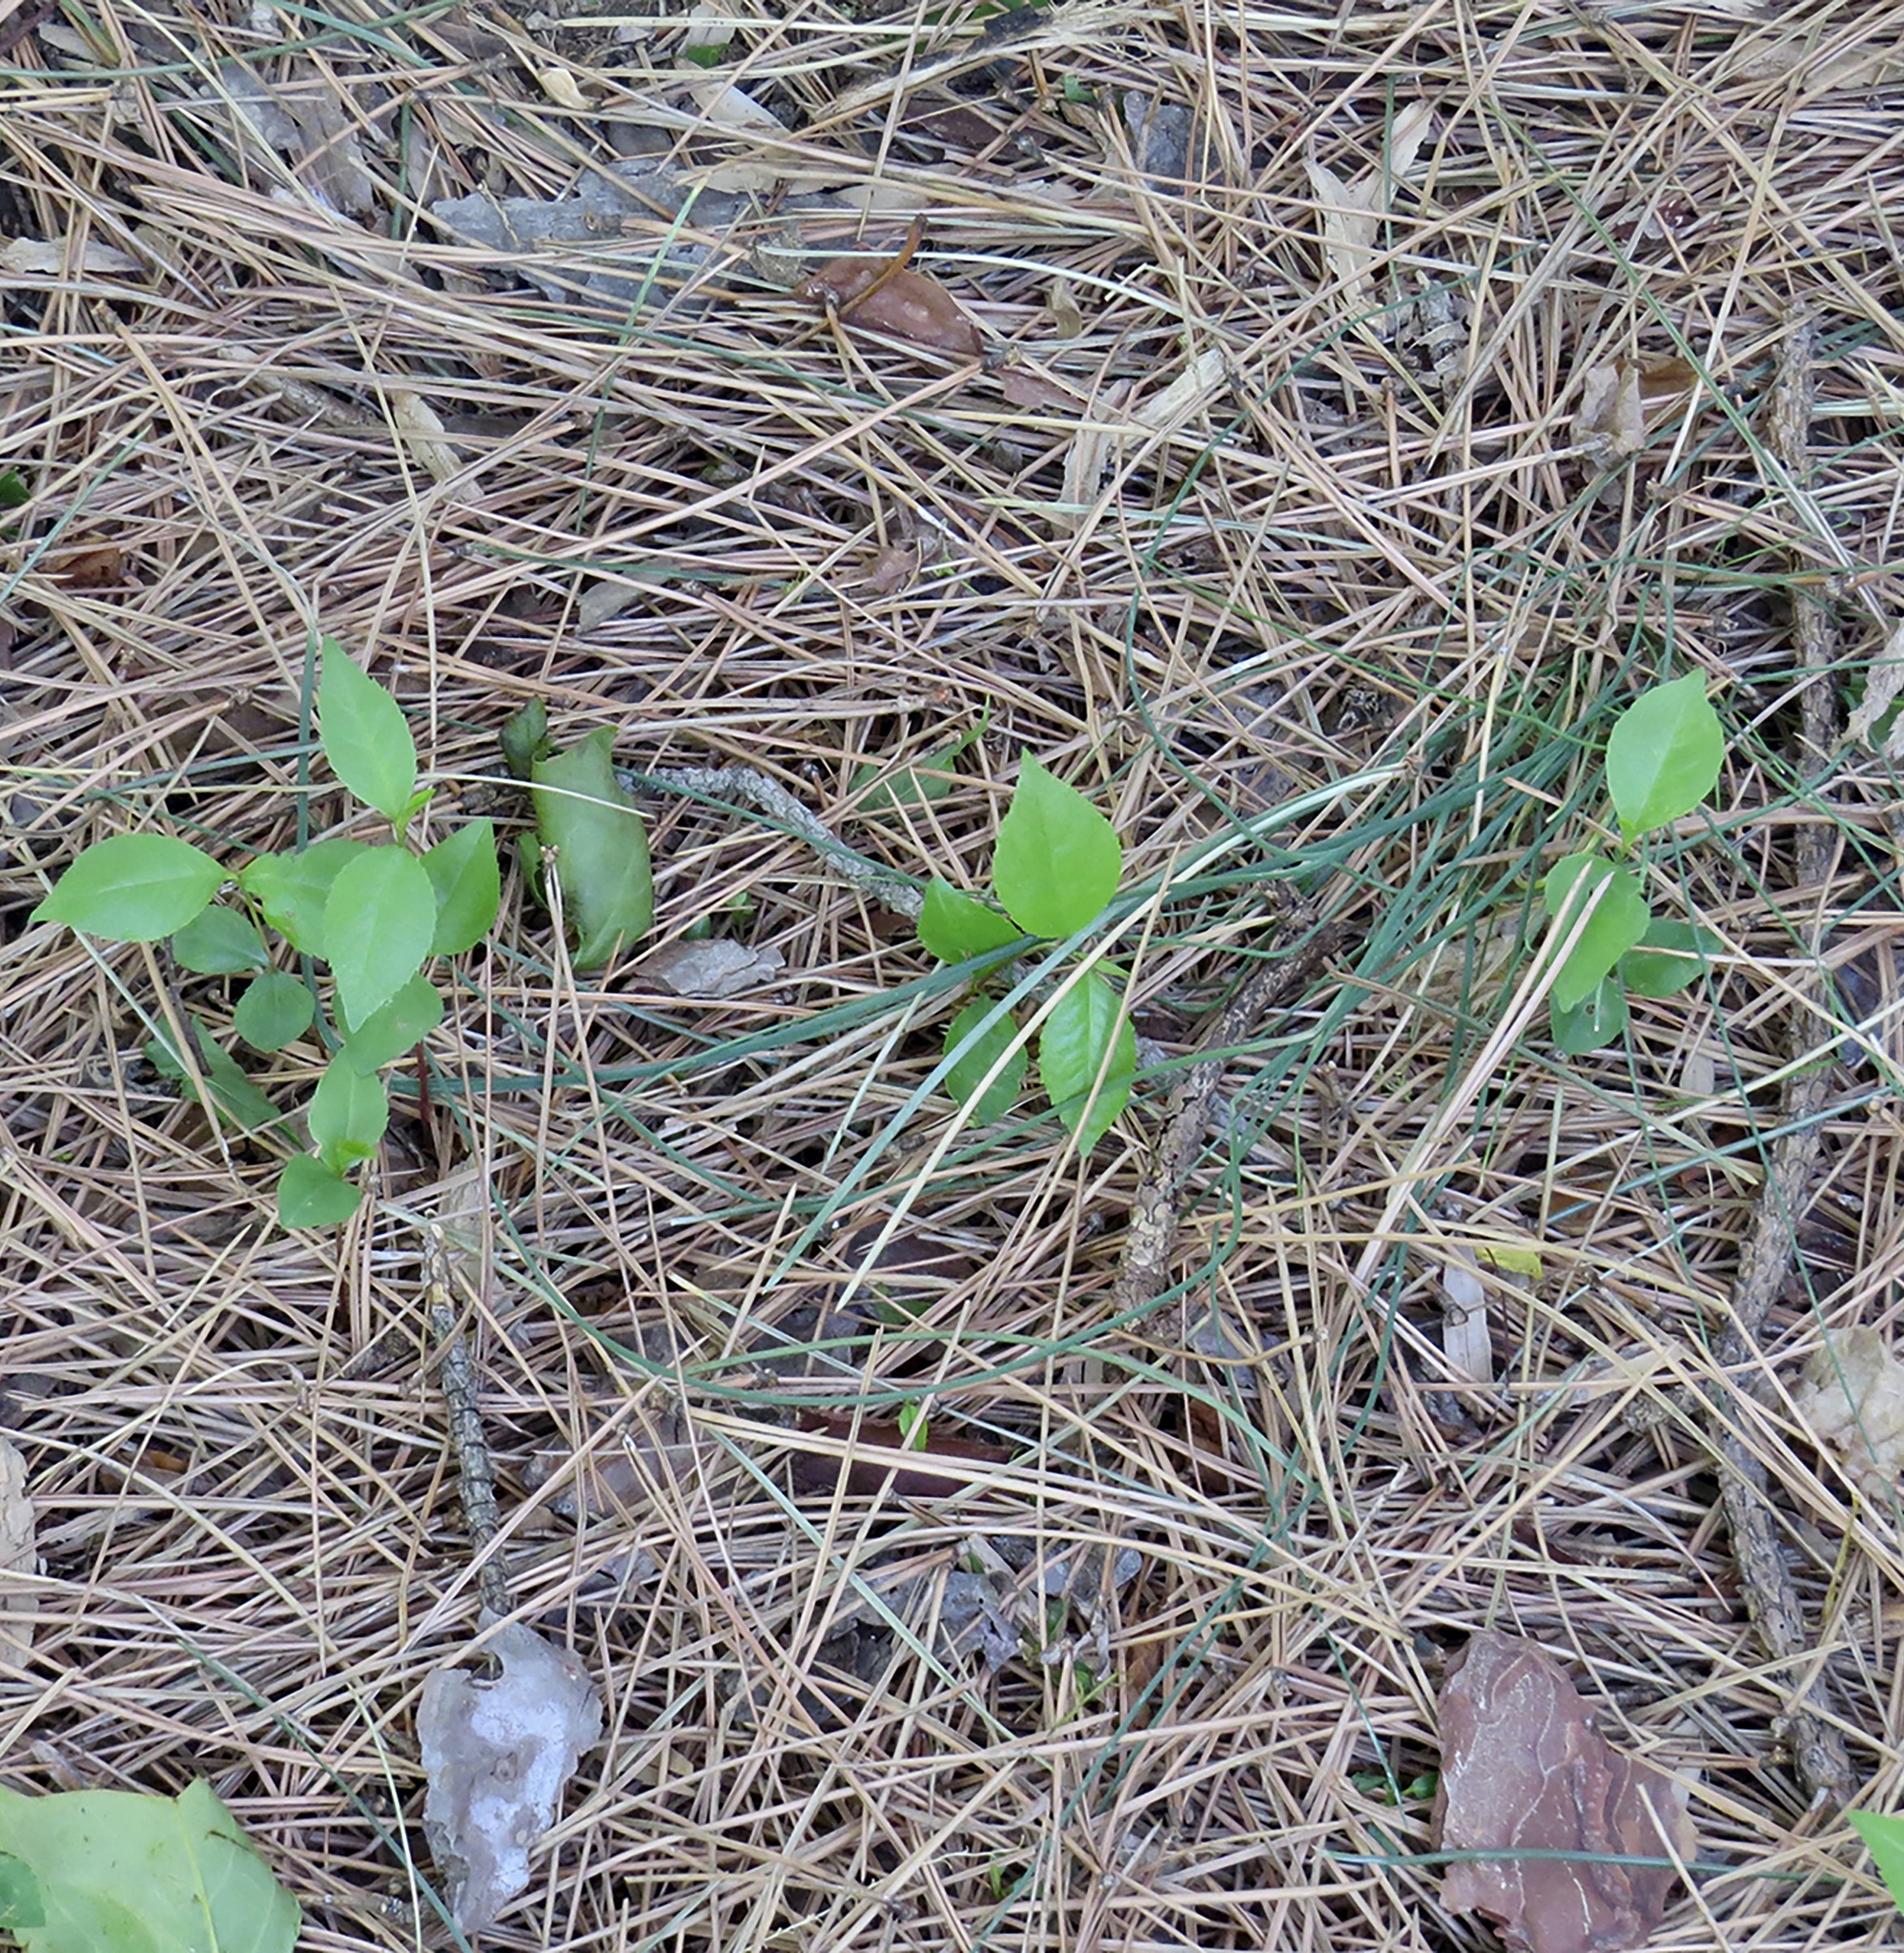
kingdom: Plantae
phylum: Tracheophyta
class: Magnoliopsida
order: Rosales
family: Rosaceae
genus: Prunus
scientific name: Prunus serotina
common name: Black cherry
